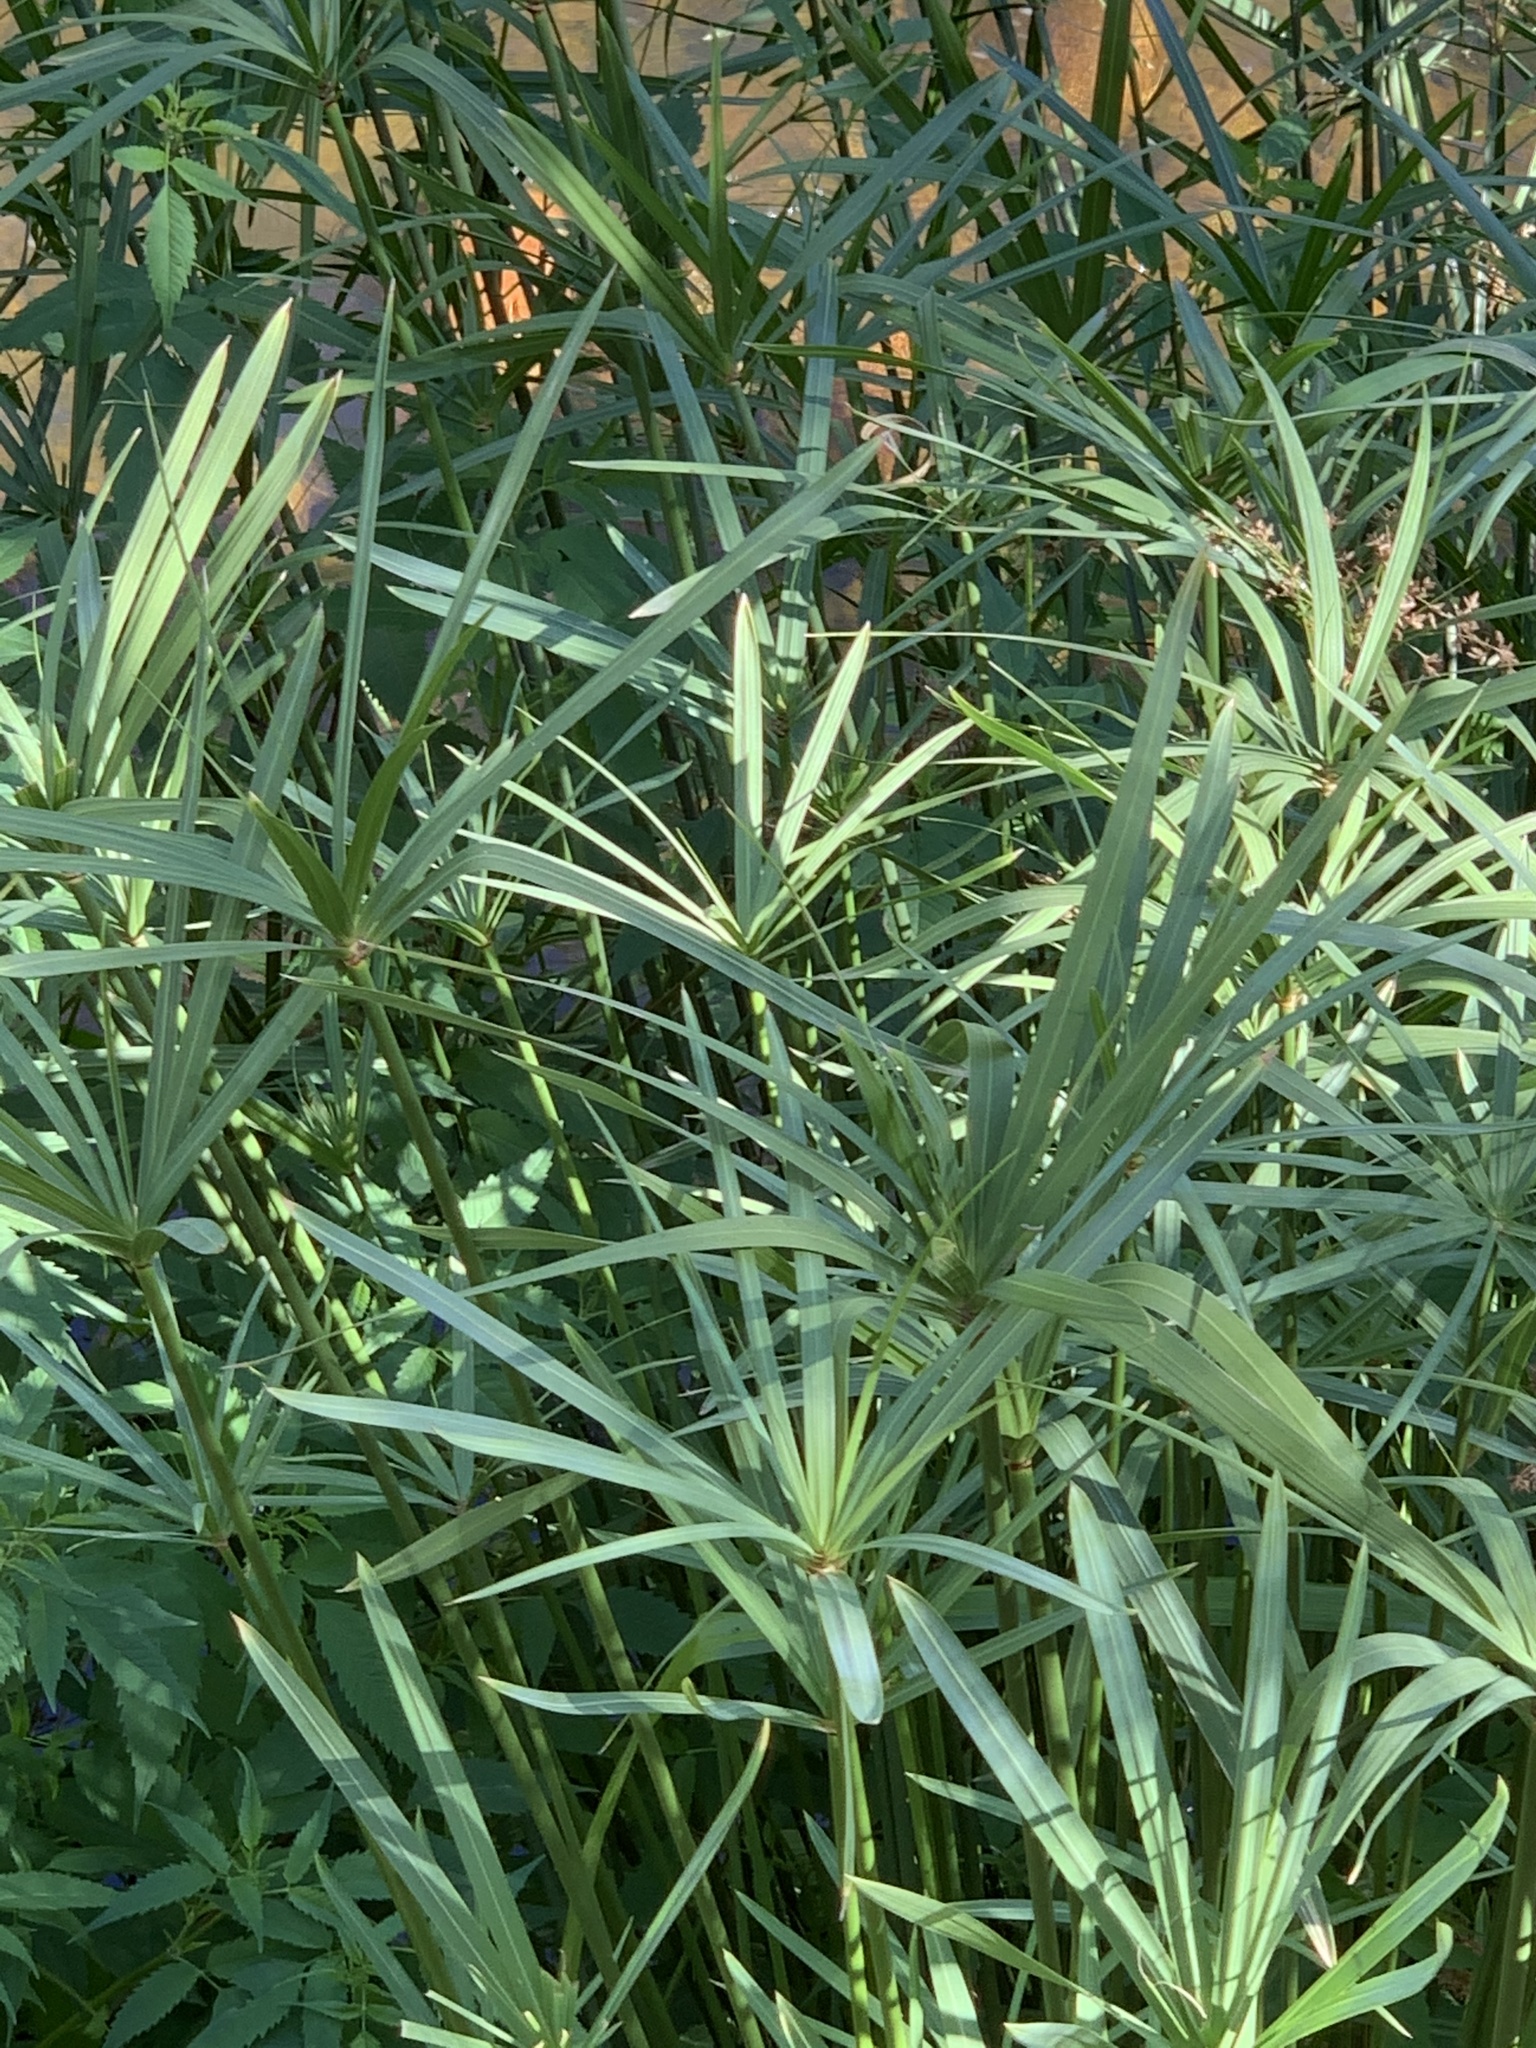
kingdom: Plantae
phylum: Tracheophyta
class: Liliopsida
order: Poales
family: Cyperaceae
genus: Cyperus
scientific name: Cyperus textilis
